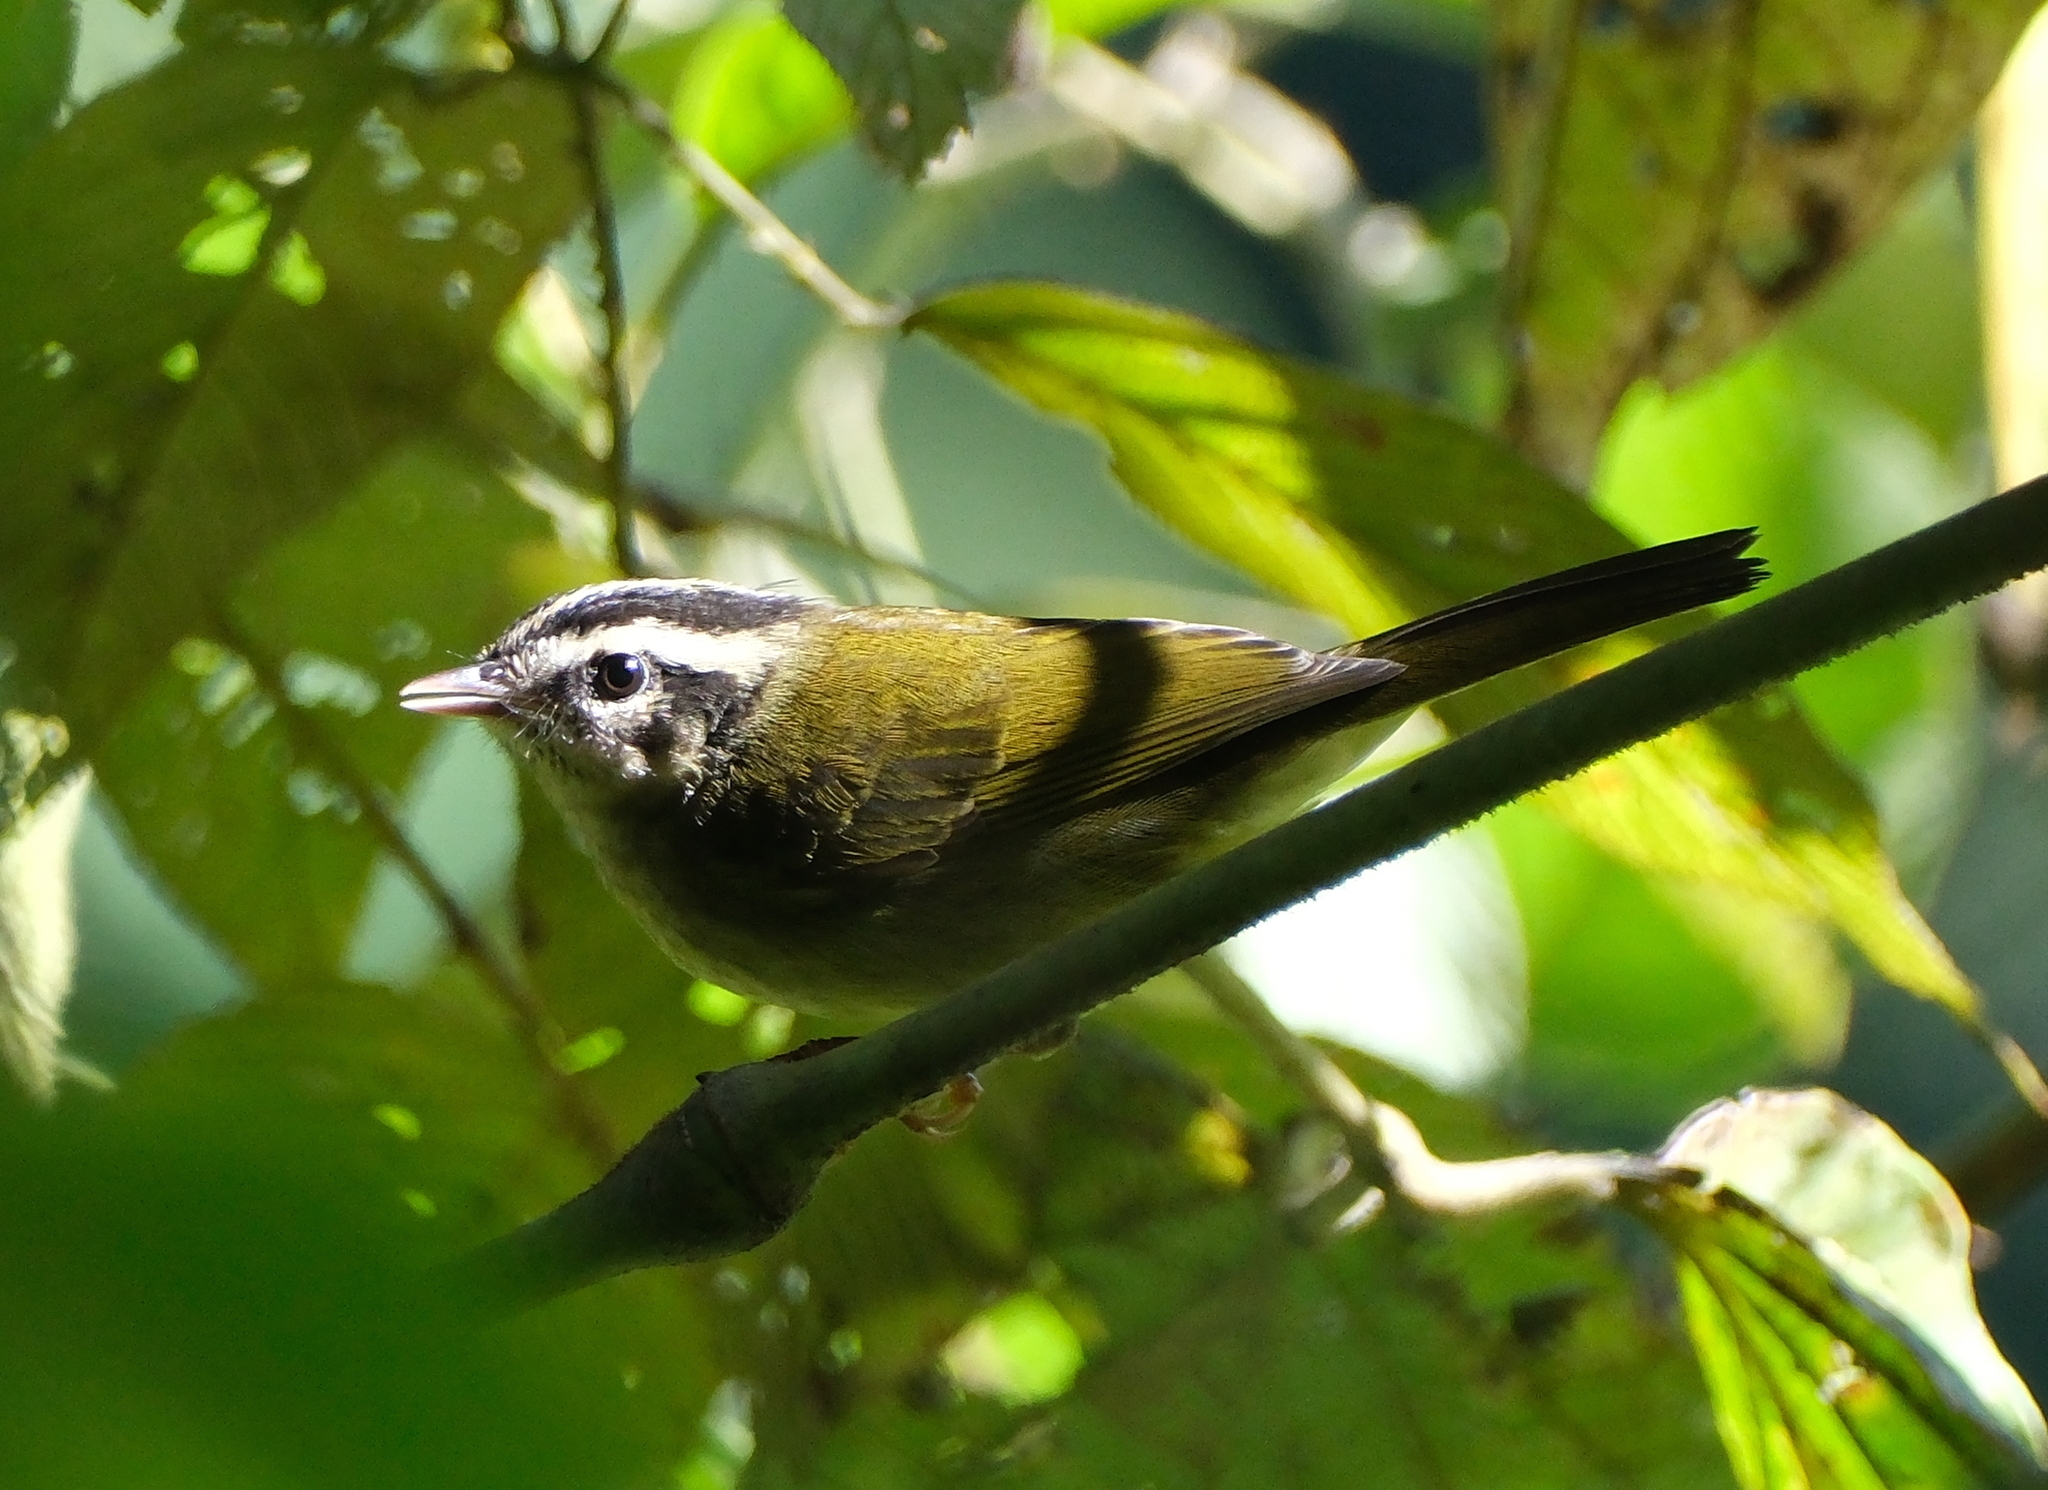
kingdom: Animalia
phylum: Chordata
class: Aves
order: Passeriformes
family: Parulidae
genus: Basileuterus
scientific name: Basileuterus tristriatus
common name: Three-striped warbler
